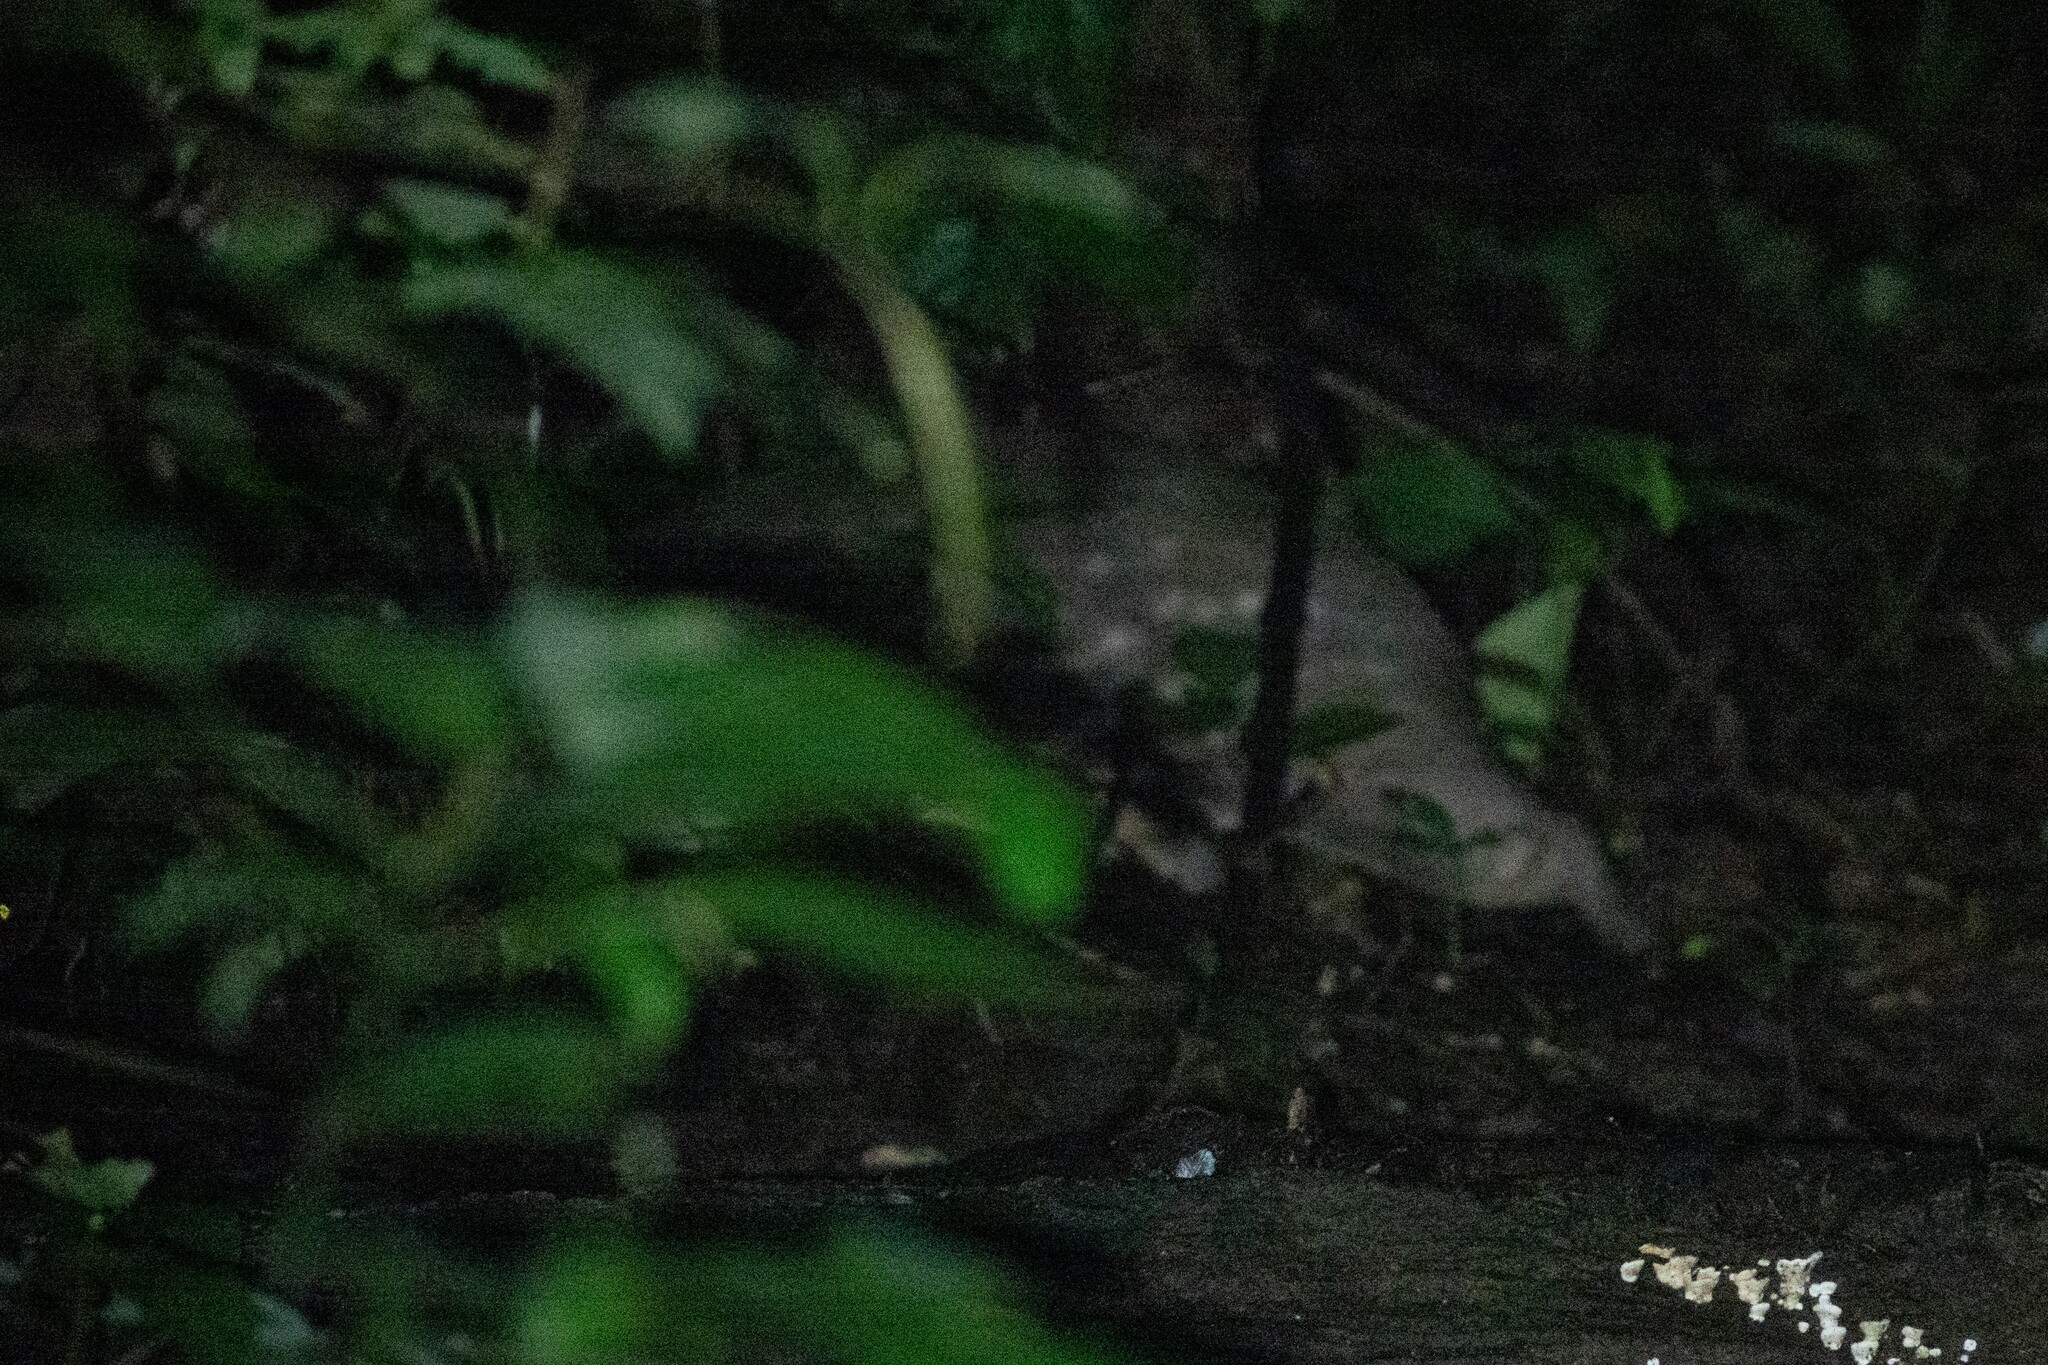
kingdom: Animalia
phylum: Chordata
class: Mammalia
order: Rodentia
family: Cuniculidae
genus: Cuniculus
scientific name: Cuniculus paca
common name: Lowland paca
